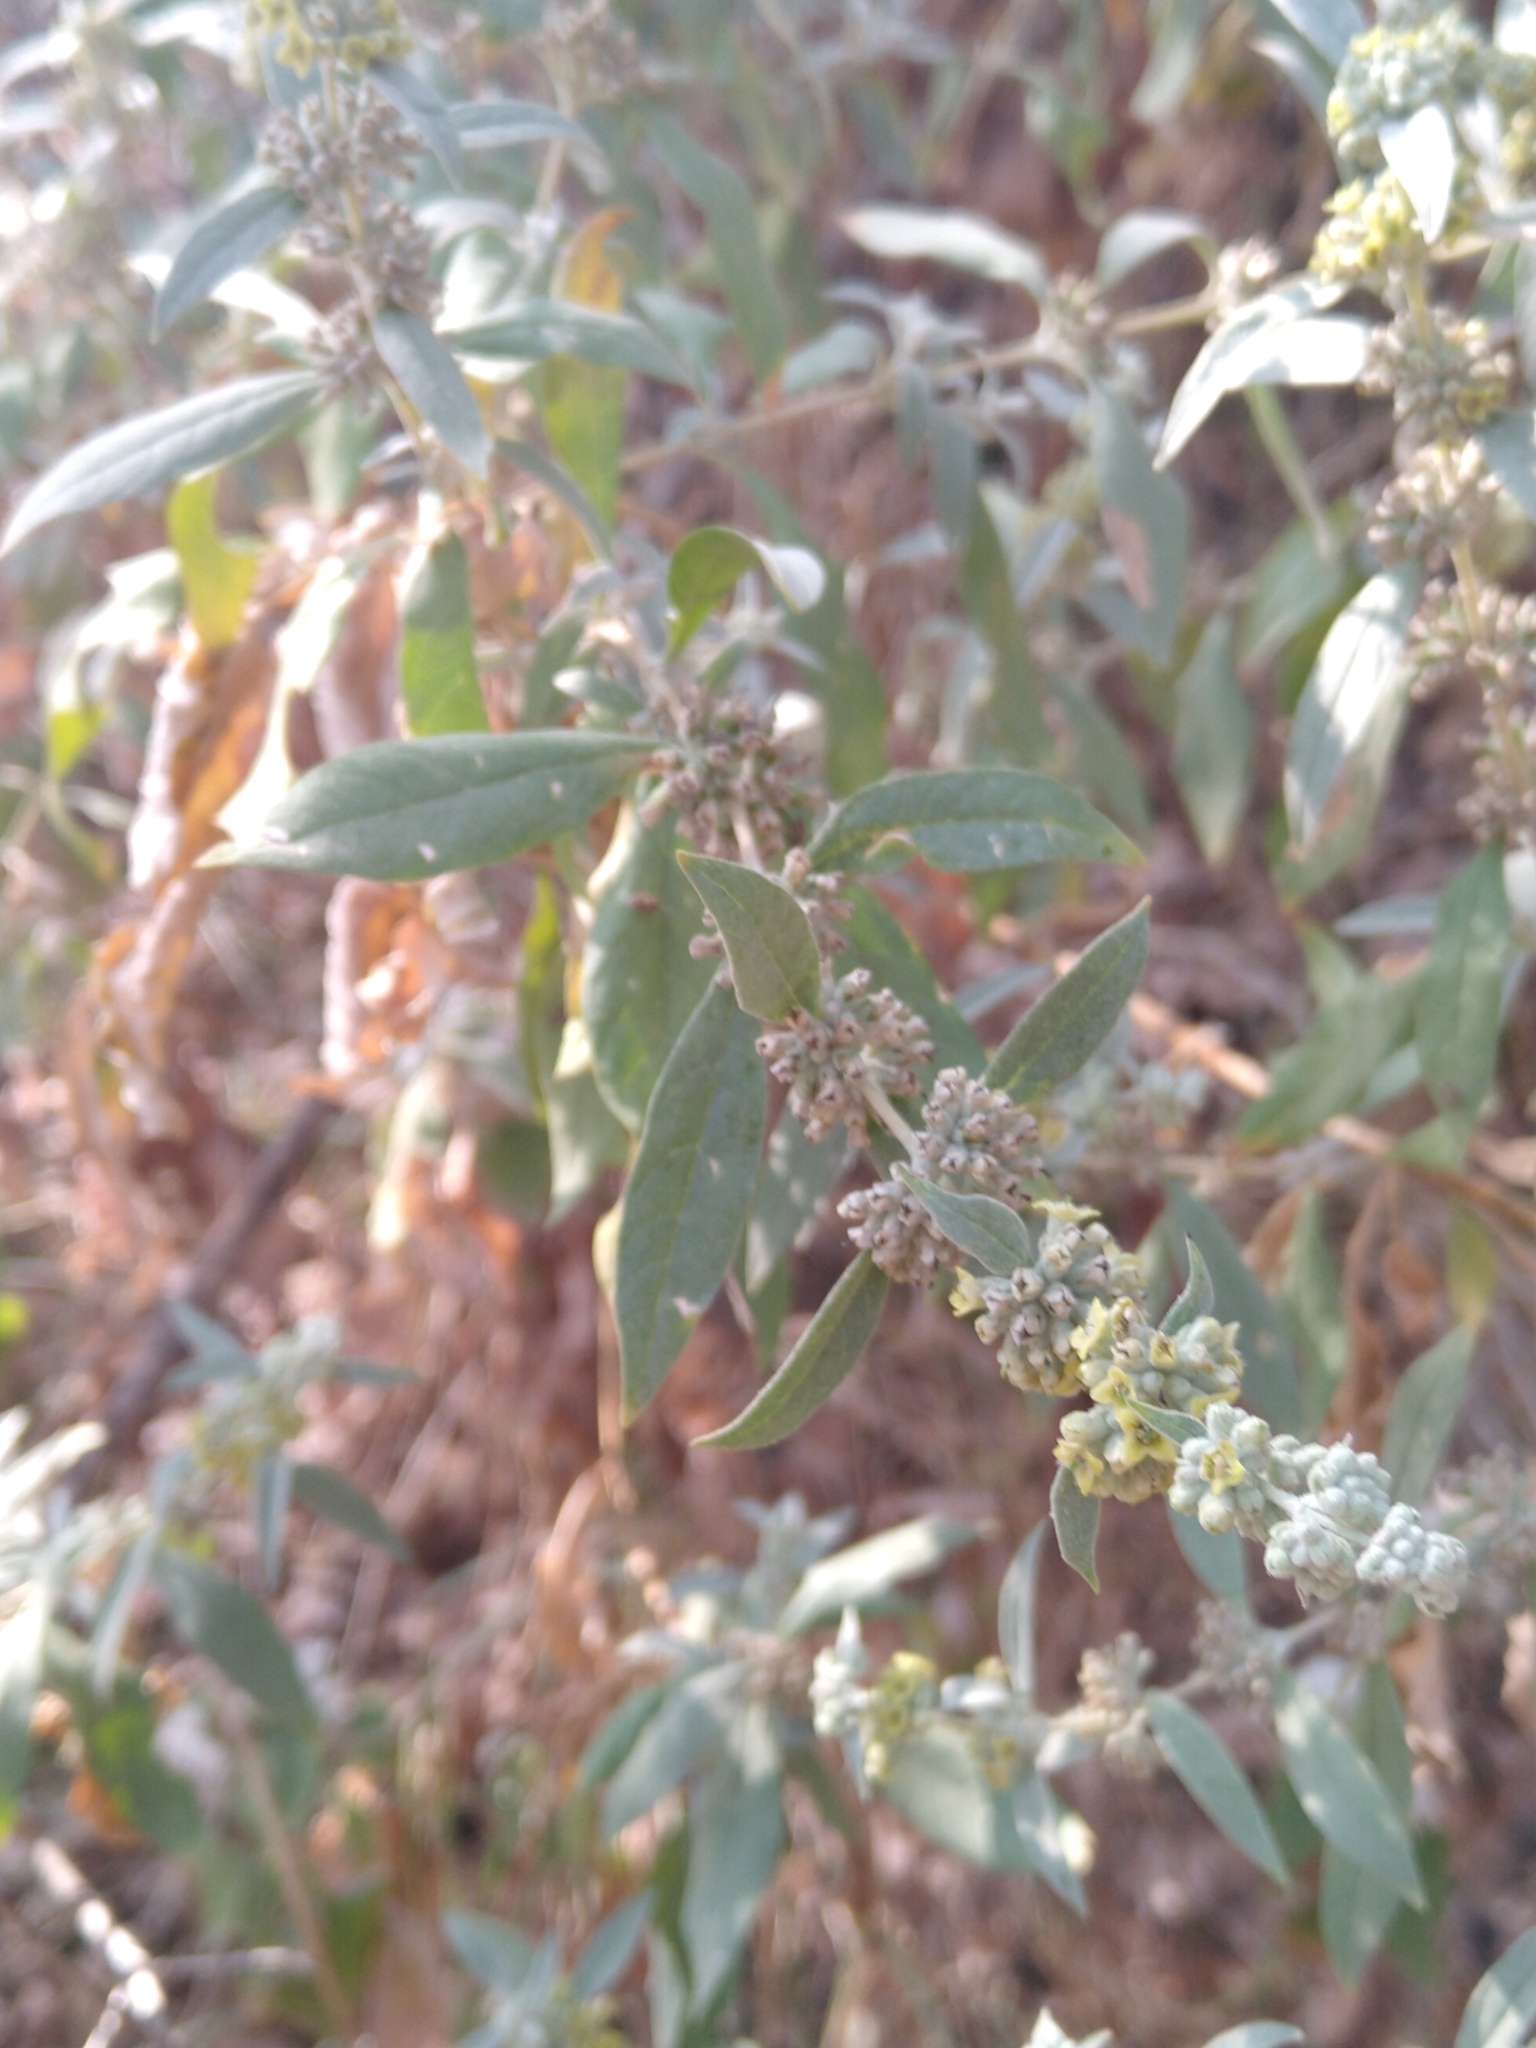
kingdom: Plantae
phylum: Tracheophyta
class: Magnoliopsida
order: Lamiales
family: Scrophulariaceae
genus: Buddleja
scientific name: Buddleja sessiliflora
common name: Rio grande butterfly-bush
